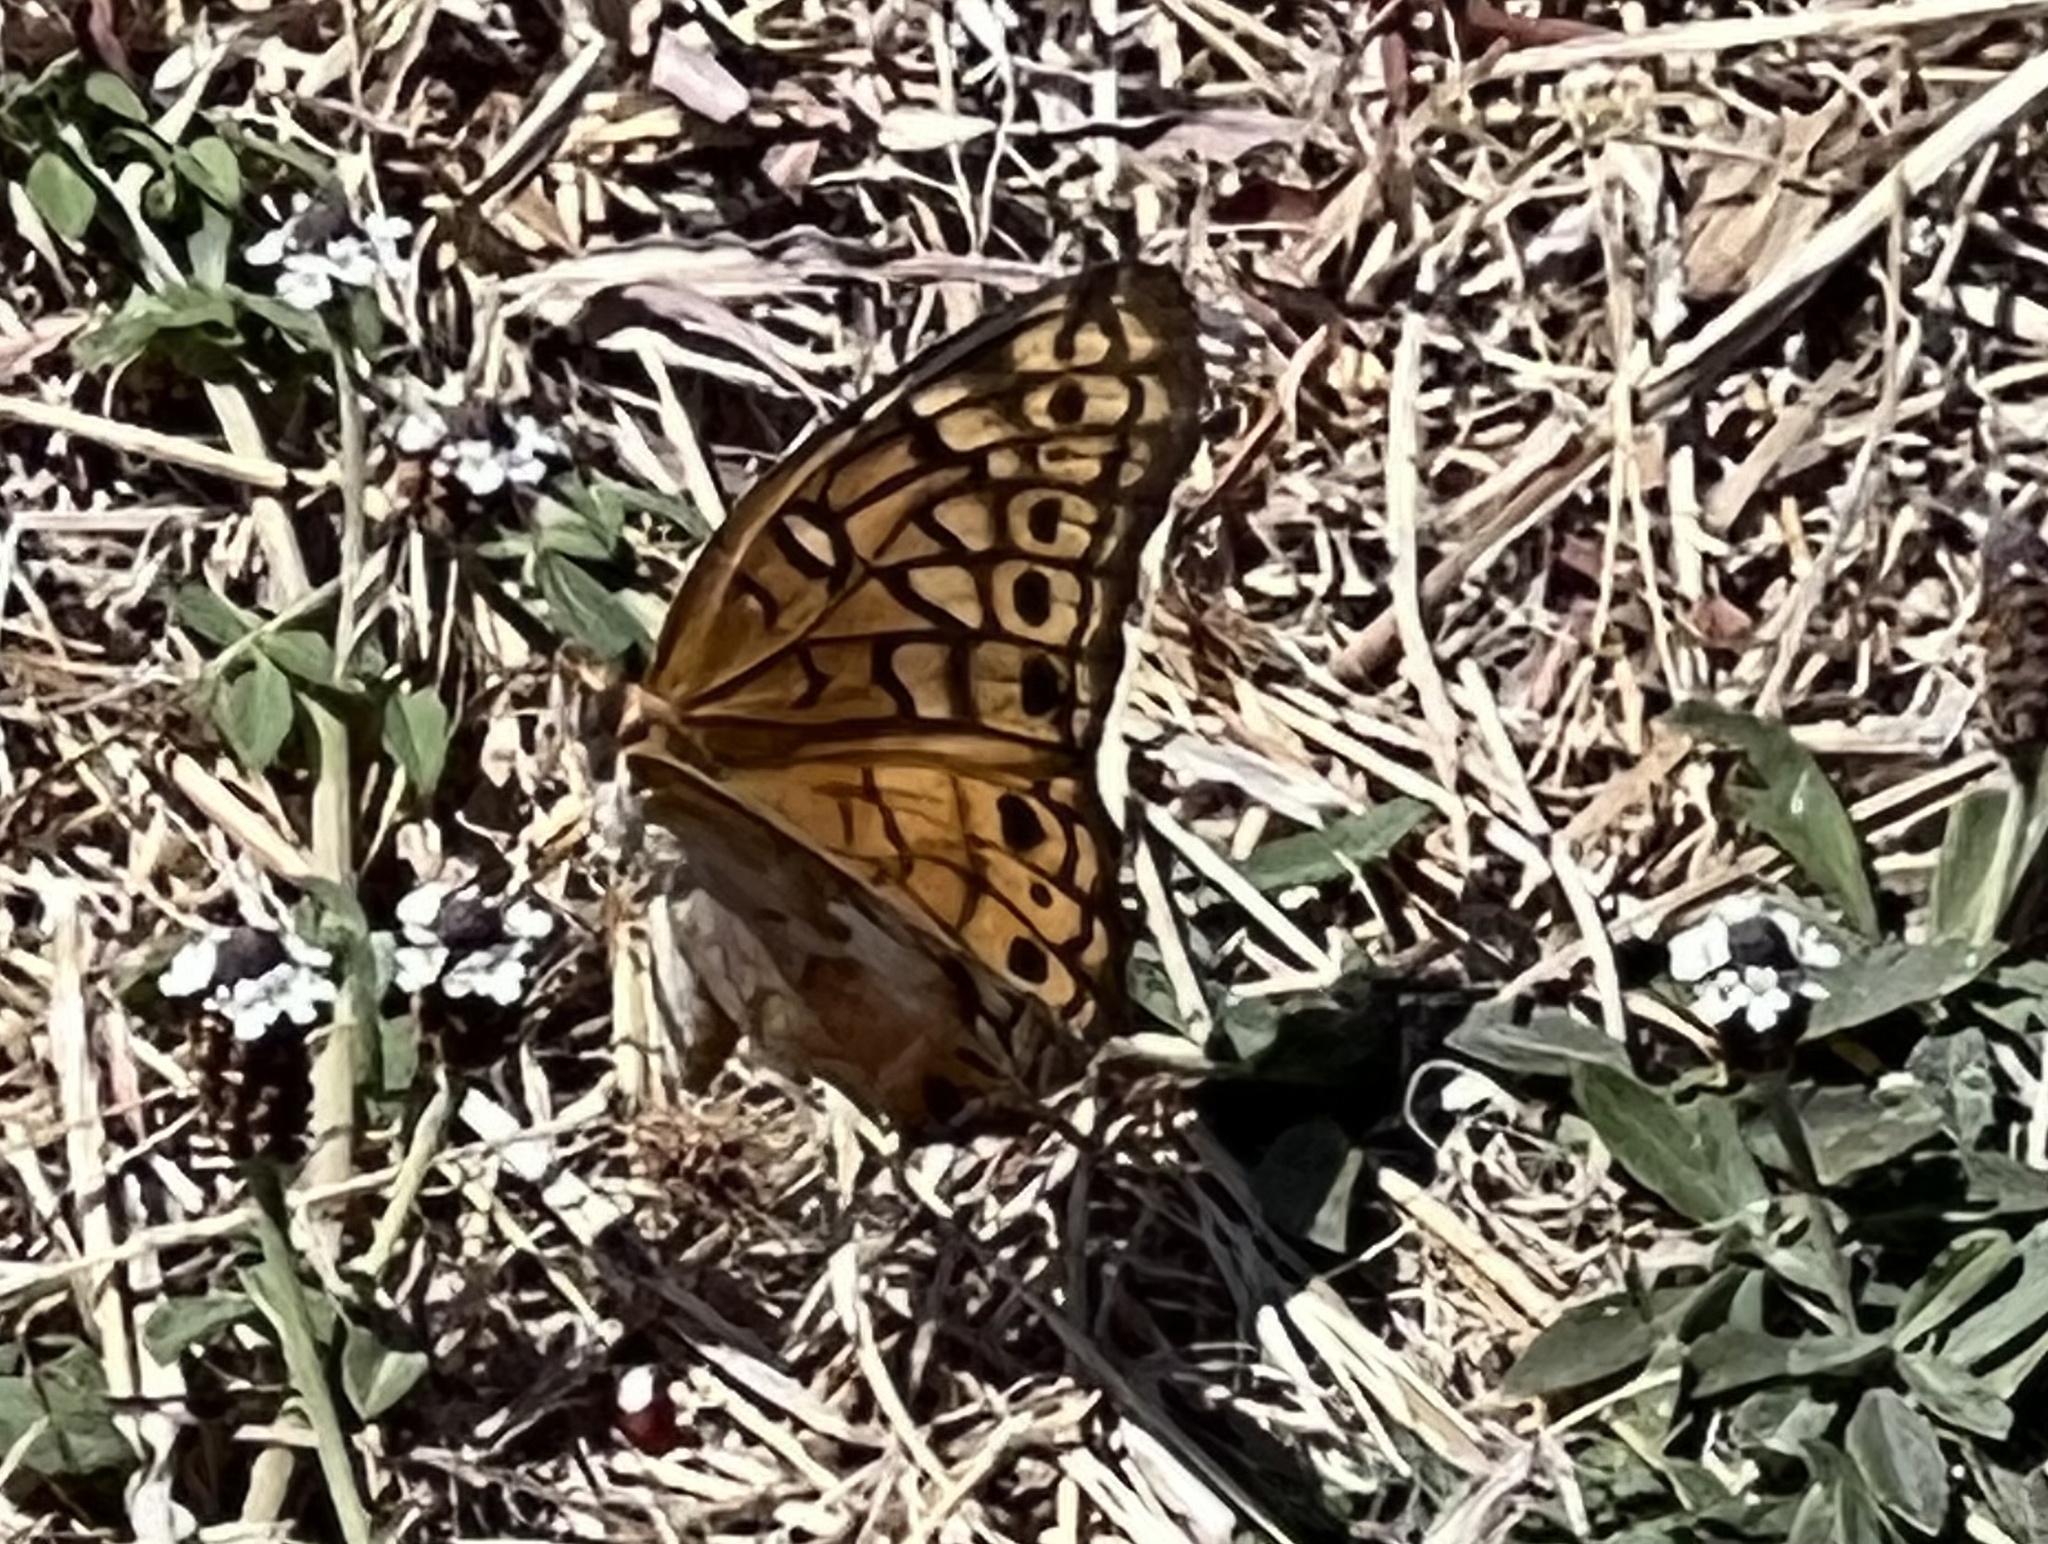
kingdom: Animalia
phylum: Arthropoda
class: Insecta
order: Lepidoptera
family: Nymphalidae
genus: Euptoieta
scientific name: Euptoieta claudia
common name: Variegated fritillary
